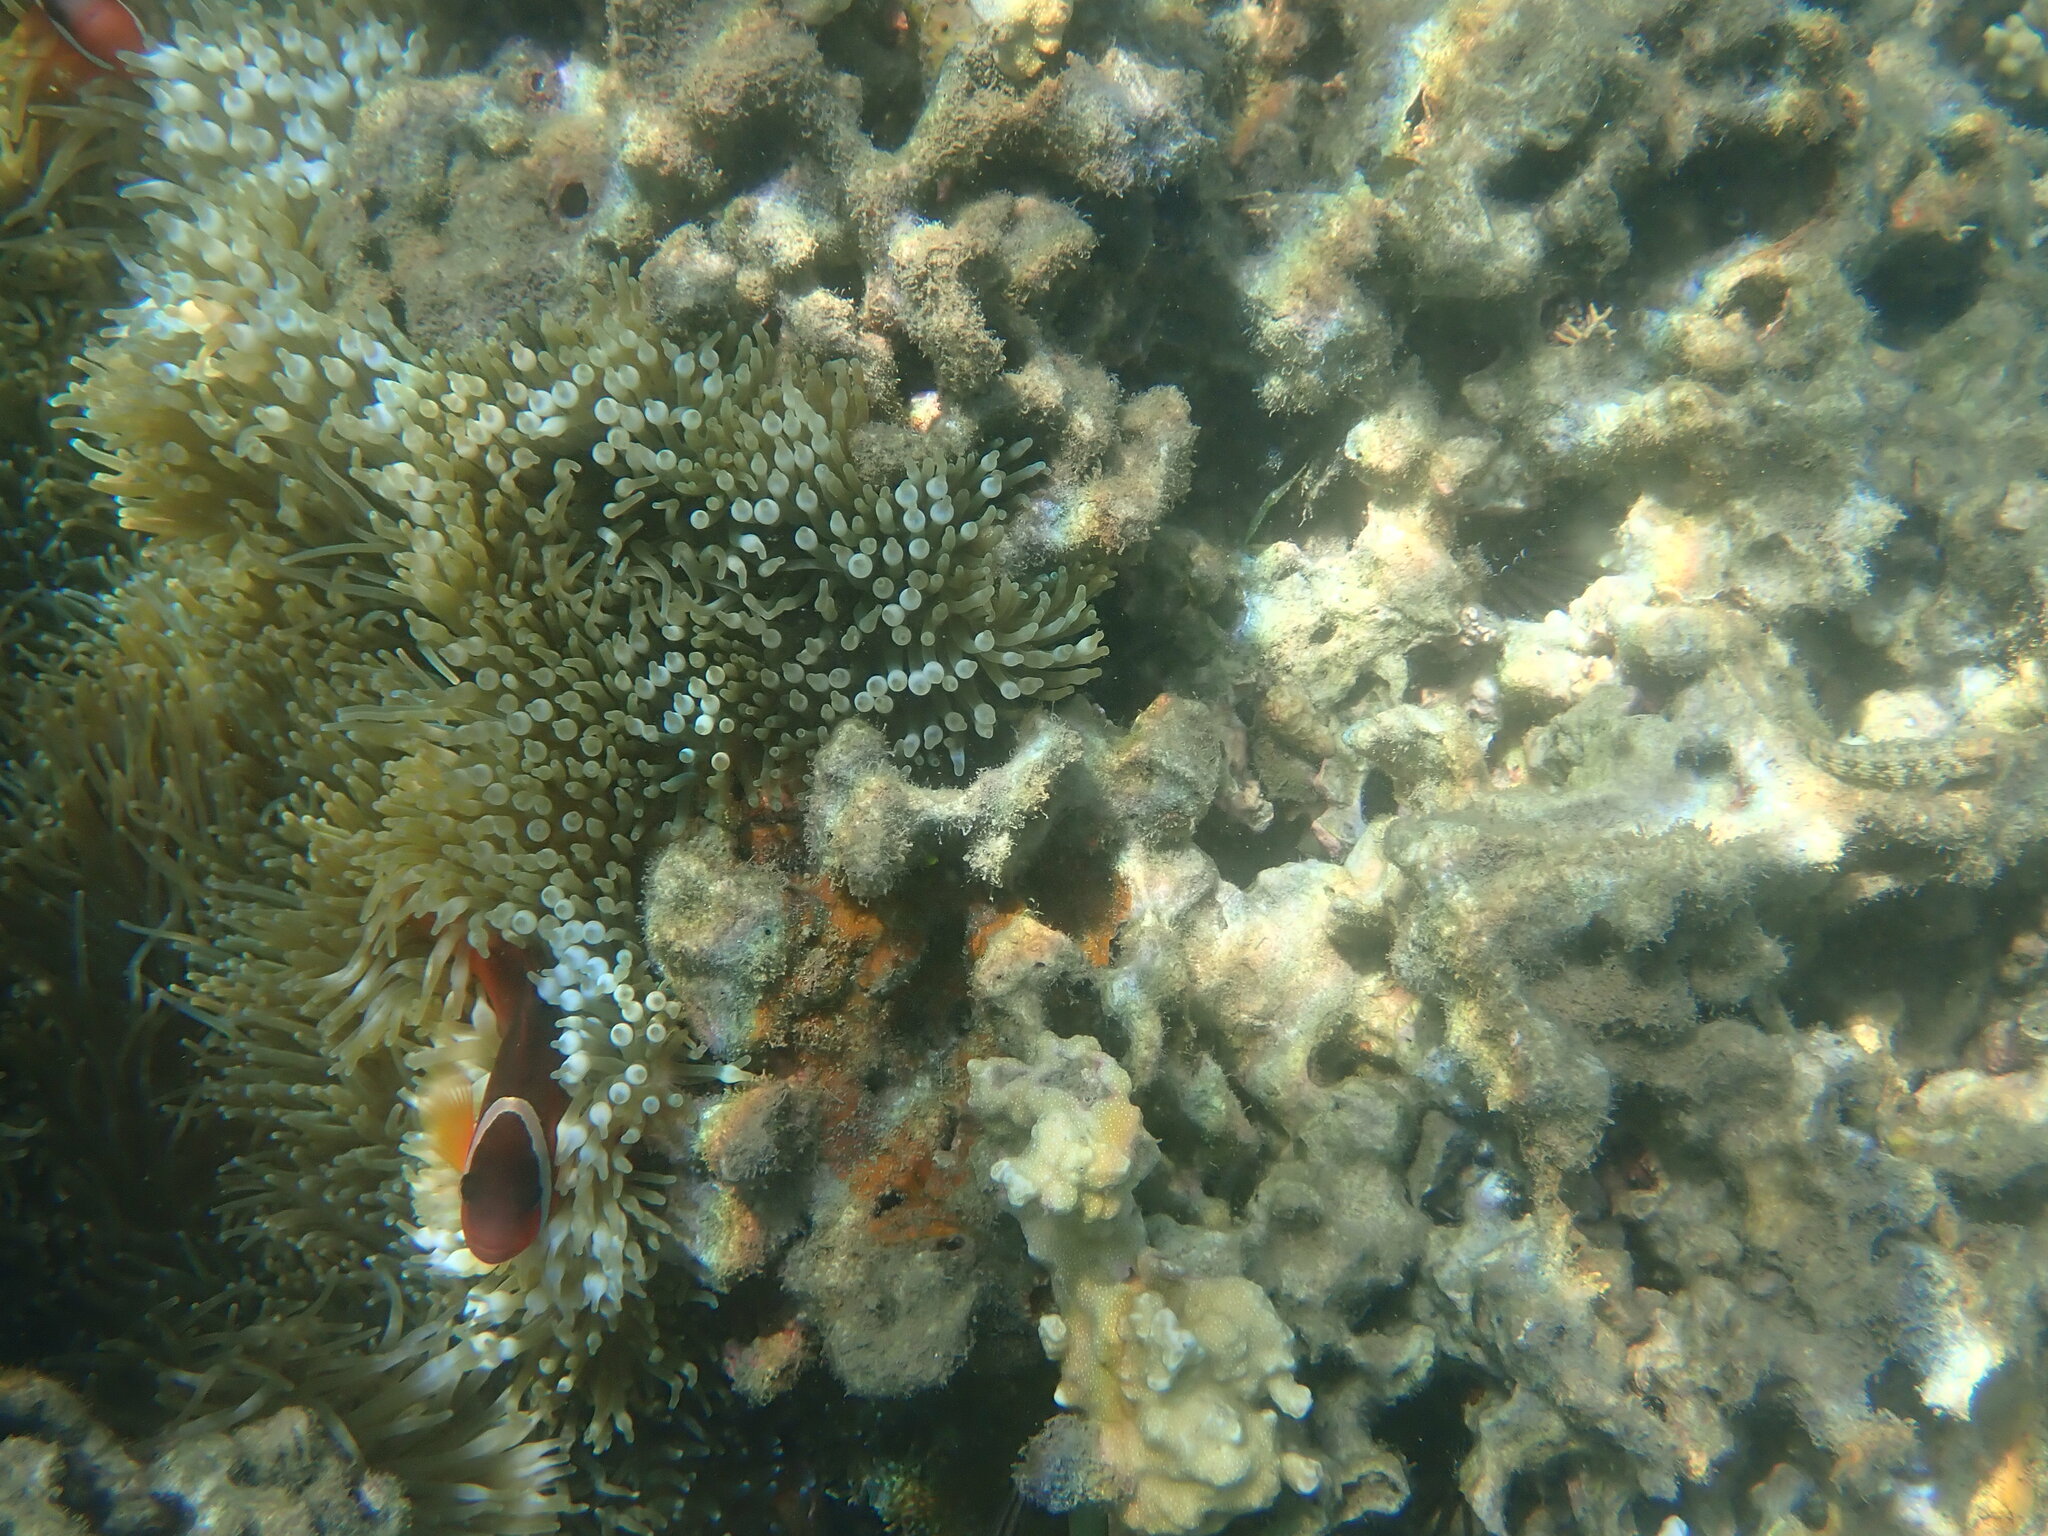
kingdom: Animalia
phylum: Chordata
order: Perciformes
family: Pomacentridae
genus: Amphiprion
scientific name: Amphiprion barberi
